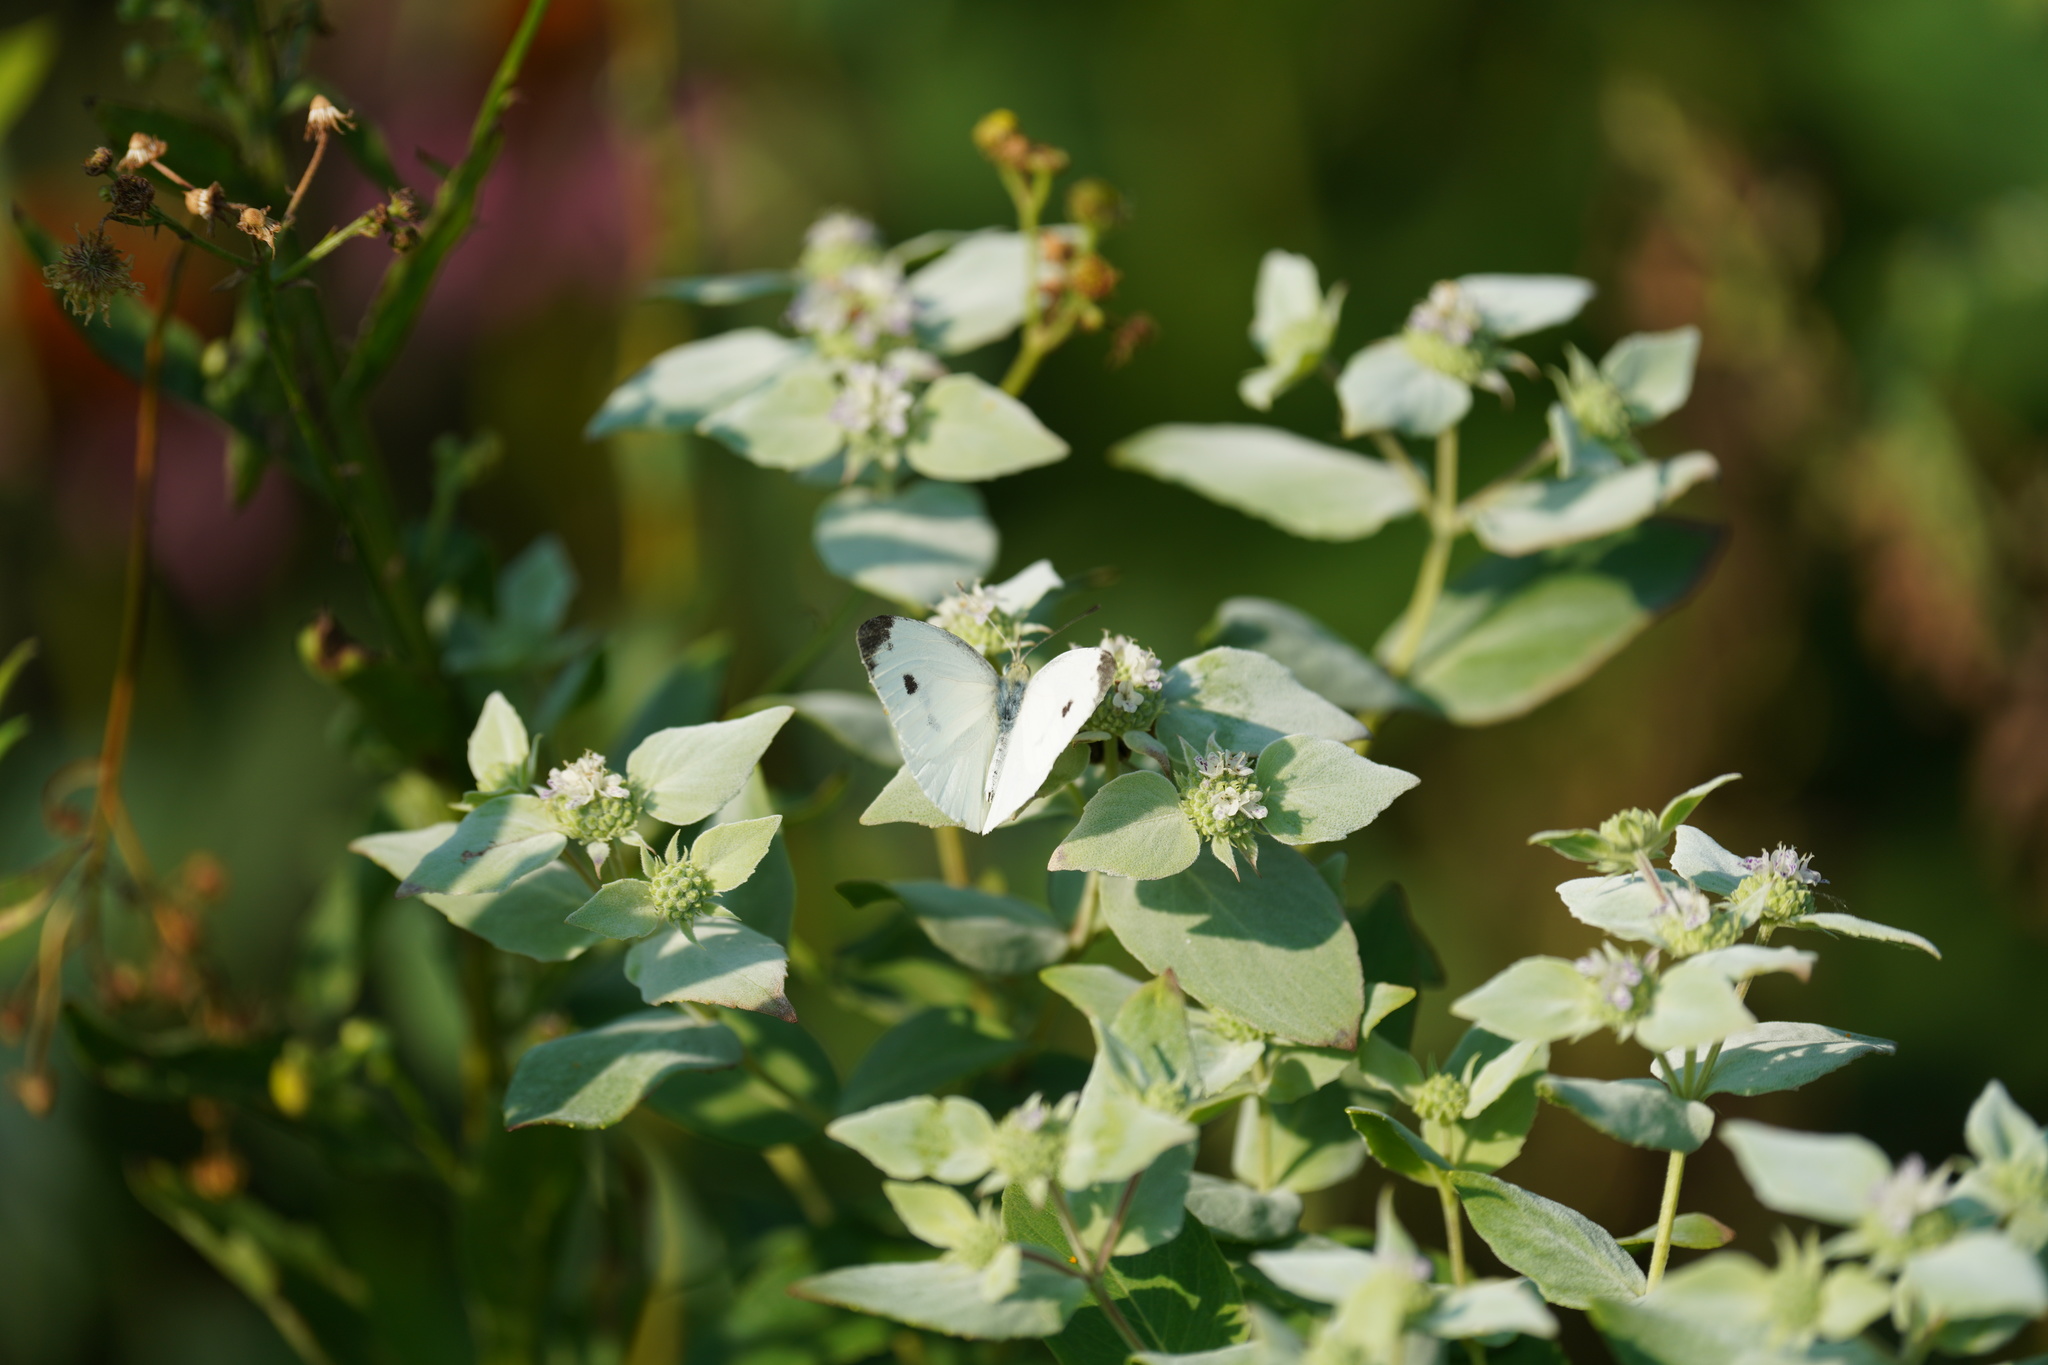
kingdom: Animalia
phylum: Arthropoda
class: Insecta
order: Lepidoptera
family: Pieridae
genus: Pieris
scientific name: Pieris rapae
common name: Small white
